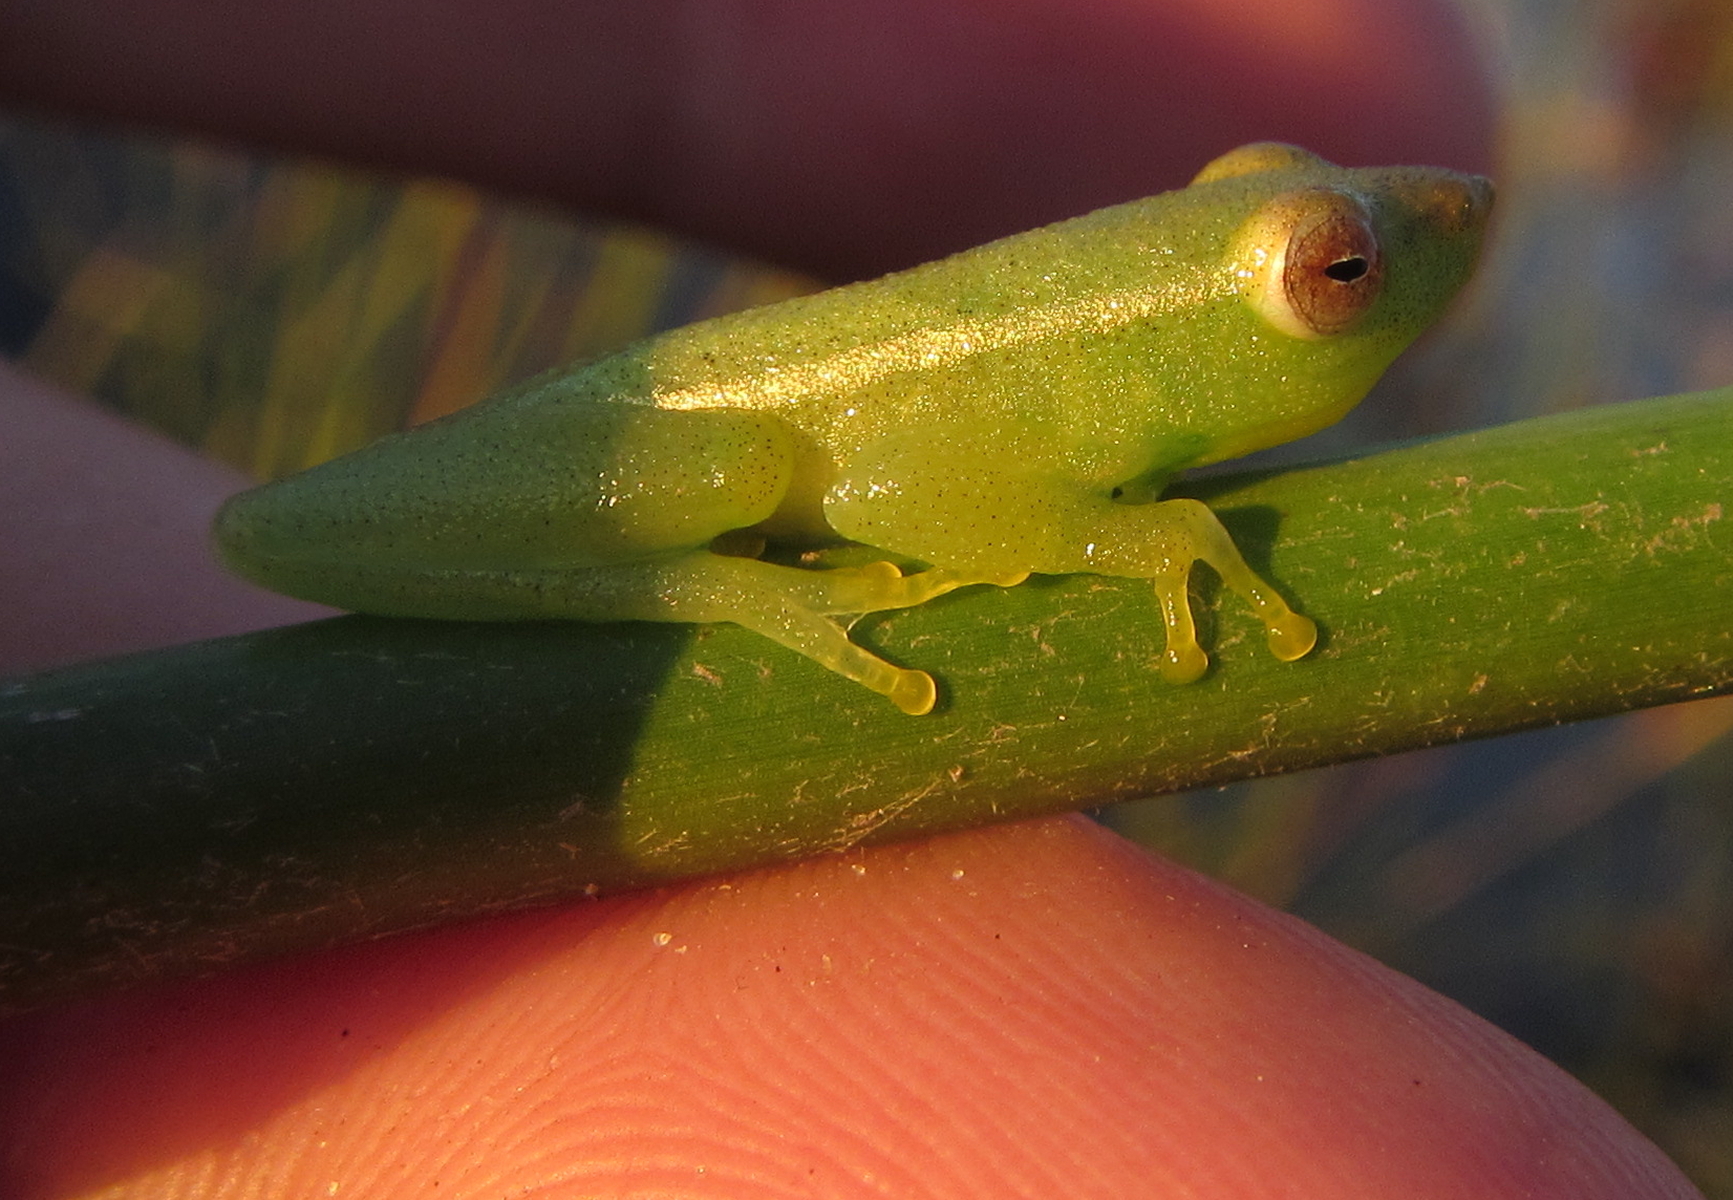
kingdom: Animalia
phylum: Chordata
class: Amphibia
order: Anura
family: Hyperoliidae
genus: Hyperolius
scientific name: Hyperolius benguellensis
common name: Benguella reed frog
